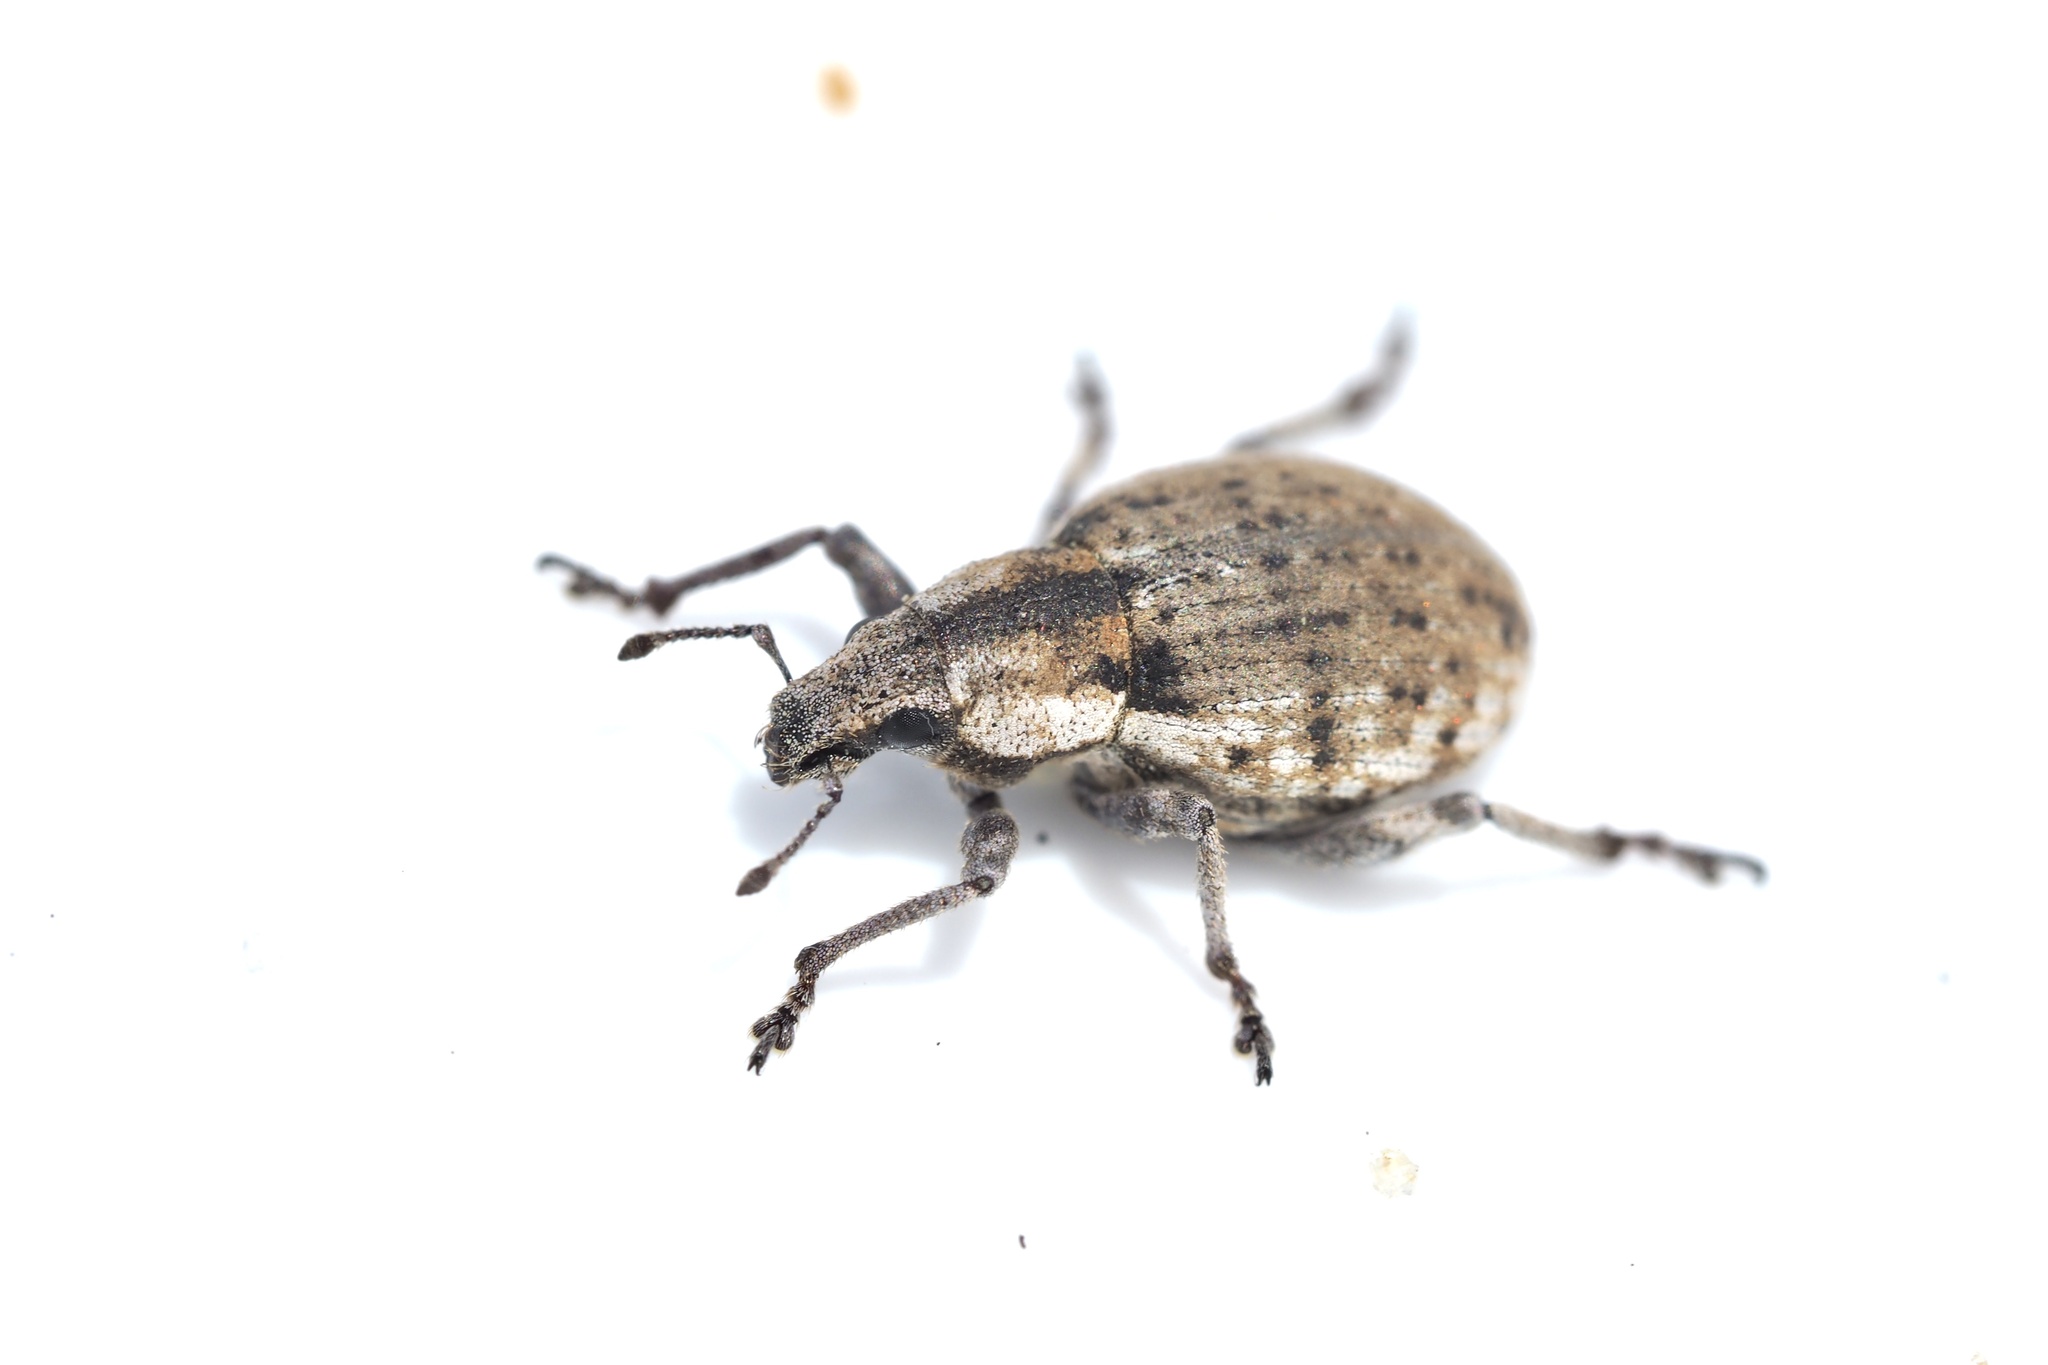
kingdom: Animalia
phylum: Arthropoda
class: Insecta
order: Coleoptera
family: Curculionidae
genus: Scepticus
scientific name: Scepticus tigrinus
